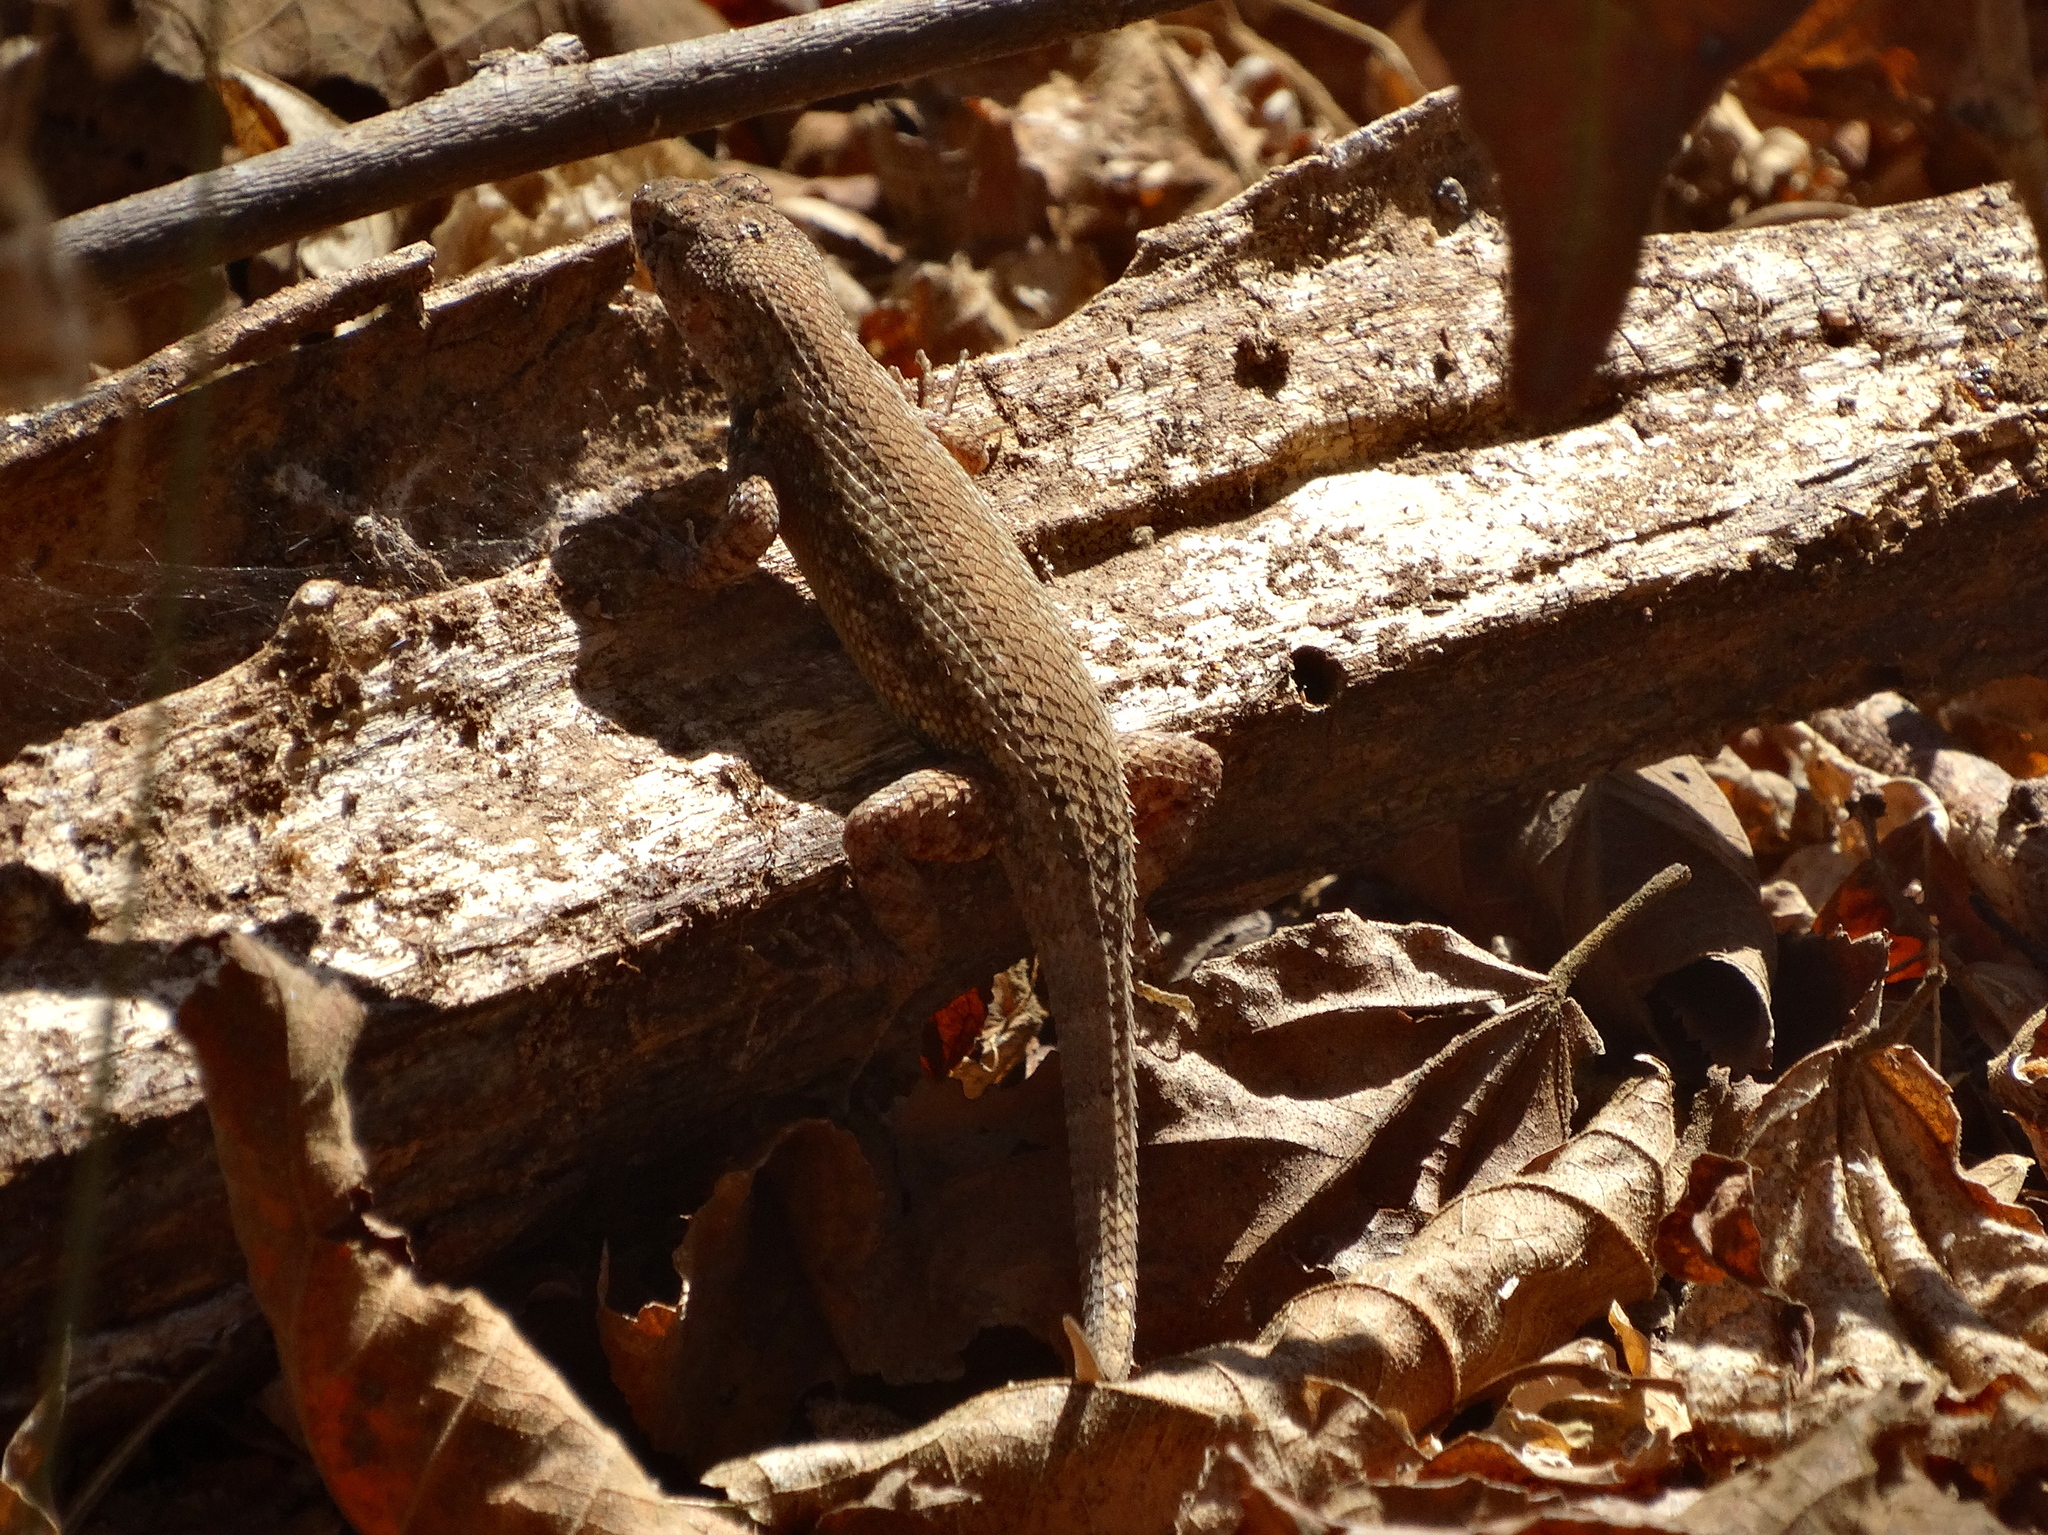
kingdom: Animalia
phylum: Chordata
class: Squamata
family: Phrynosomatidae
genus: Sceloporus
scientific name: Sceloporus nelsoni
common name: Nelson's spiny lizard
